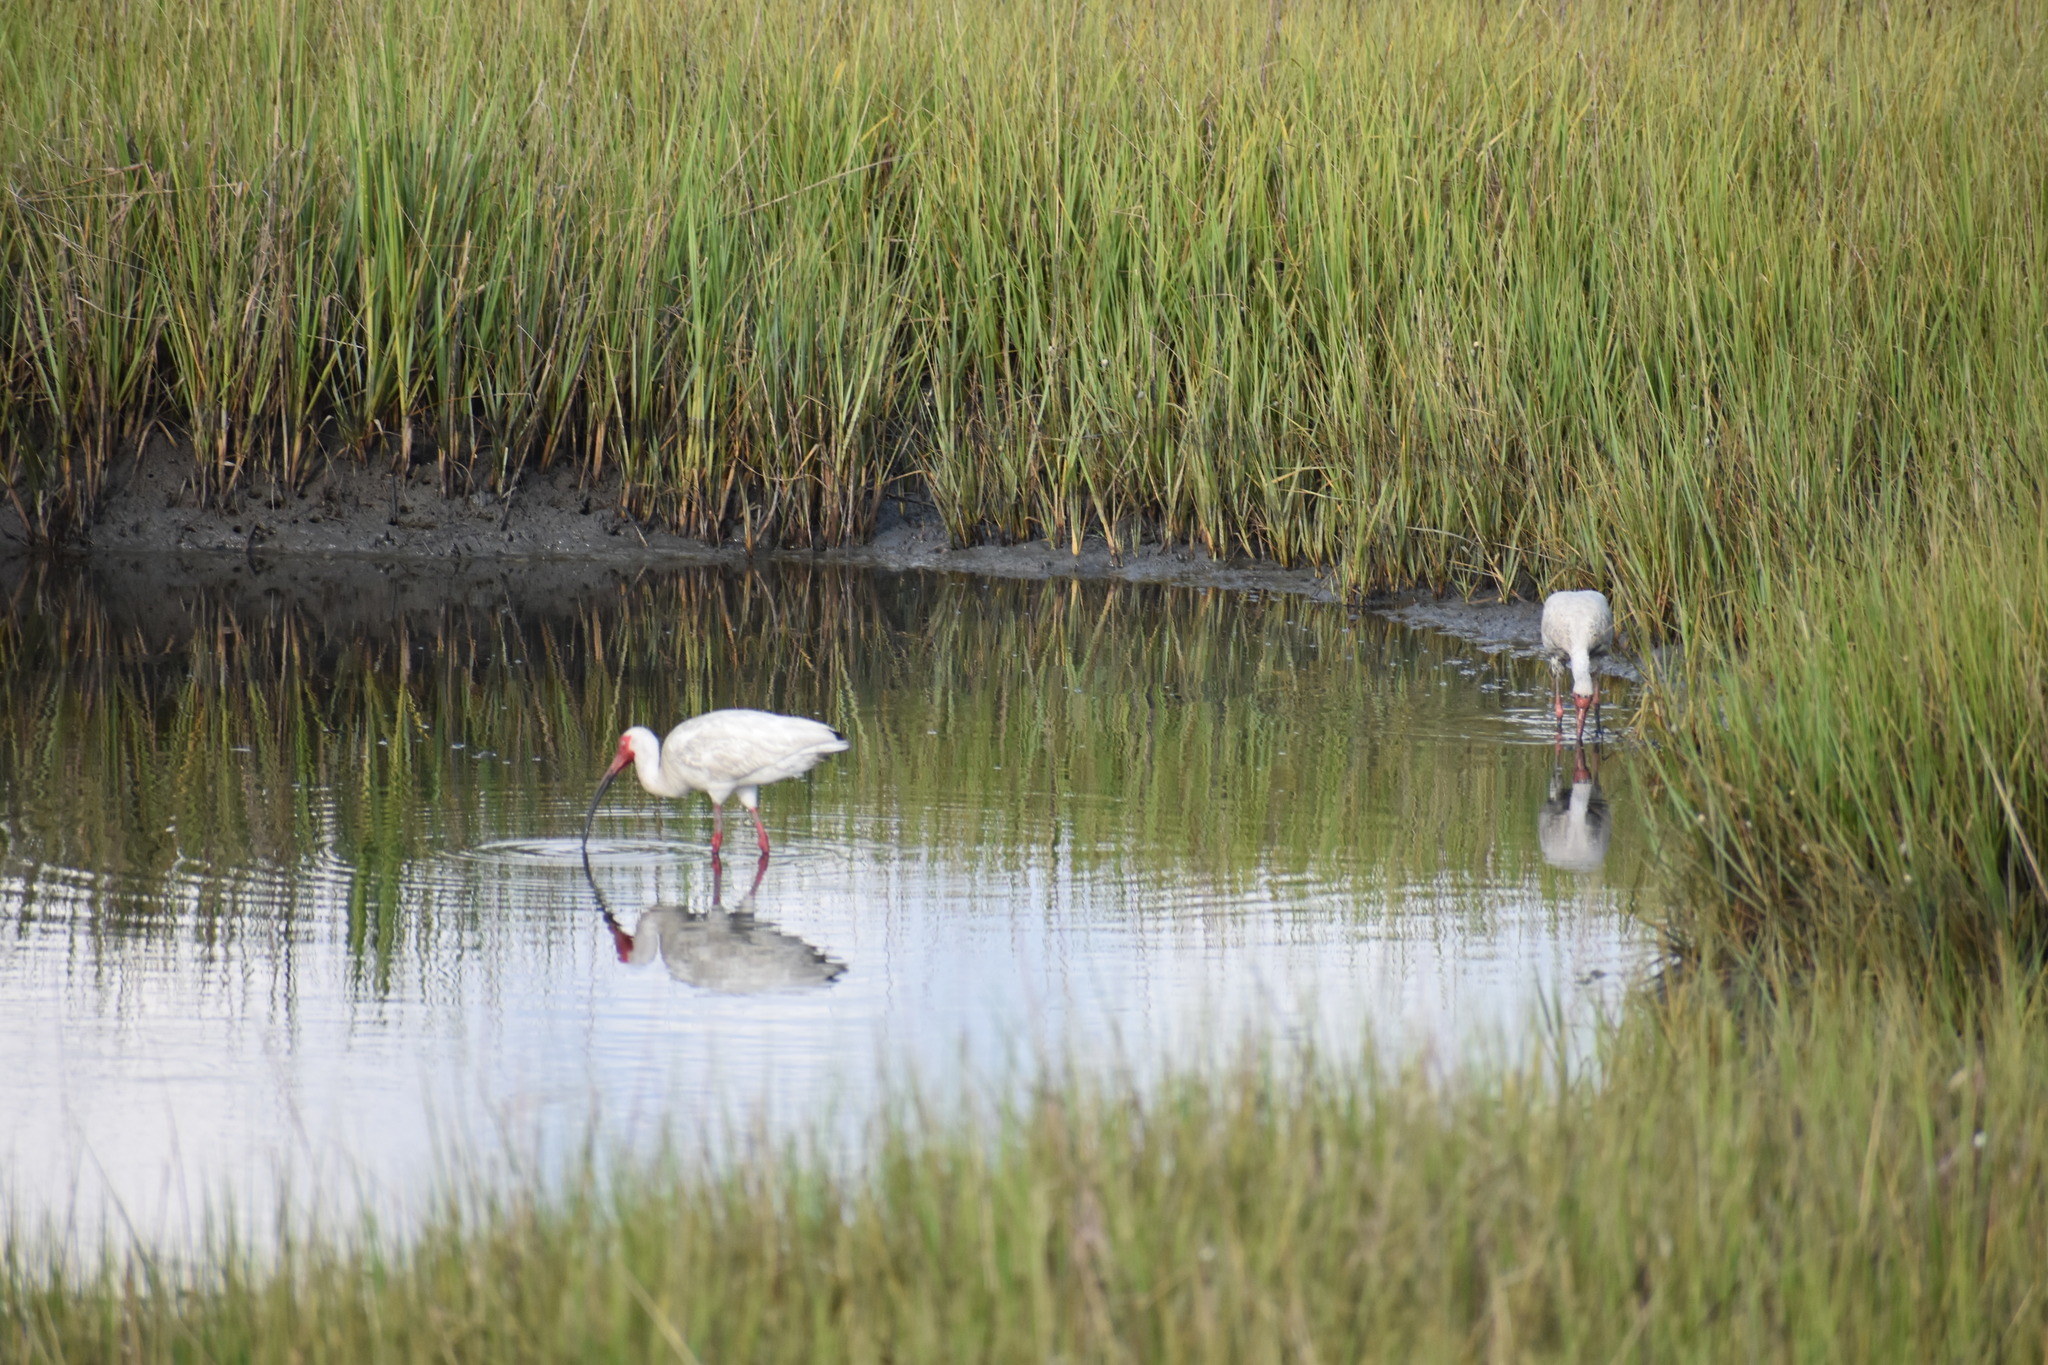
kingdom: Animalia
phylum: Chordata
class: Aves
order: Pelecaniformes
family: Threskiornithidae
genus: Eudocimus
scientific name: Eudocimus albus
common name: White ibis
